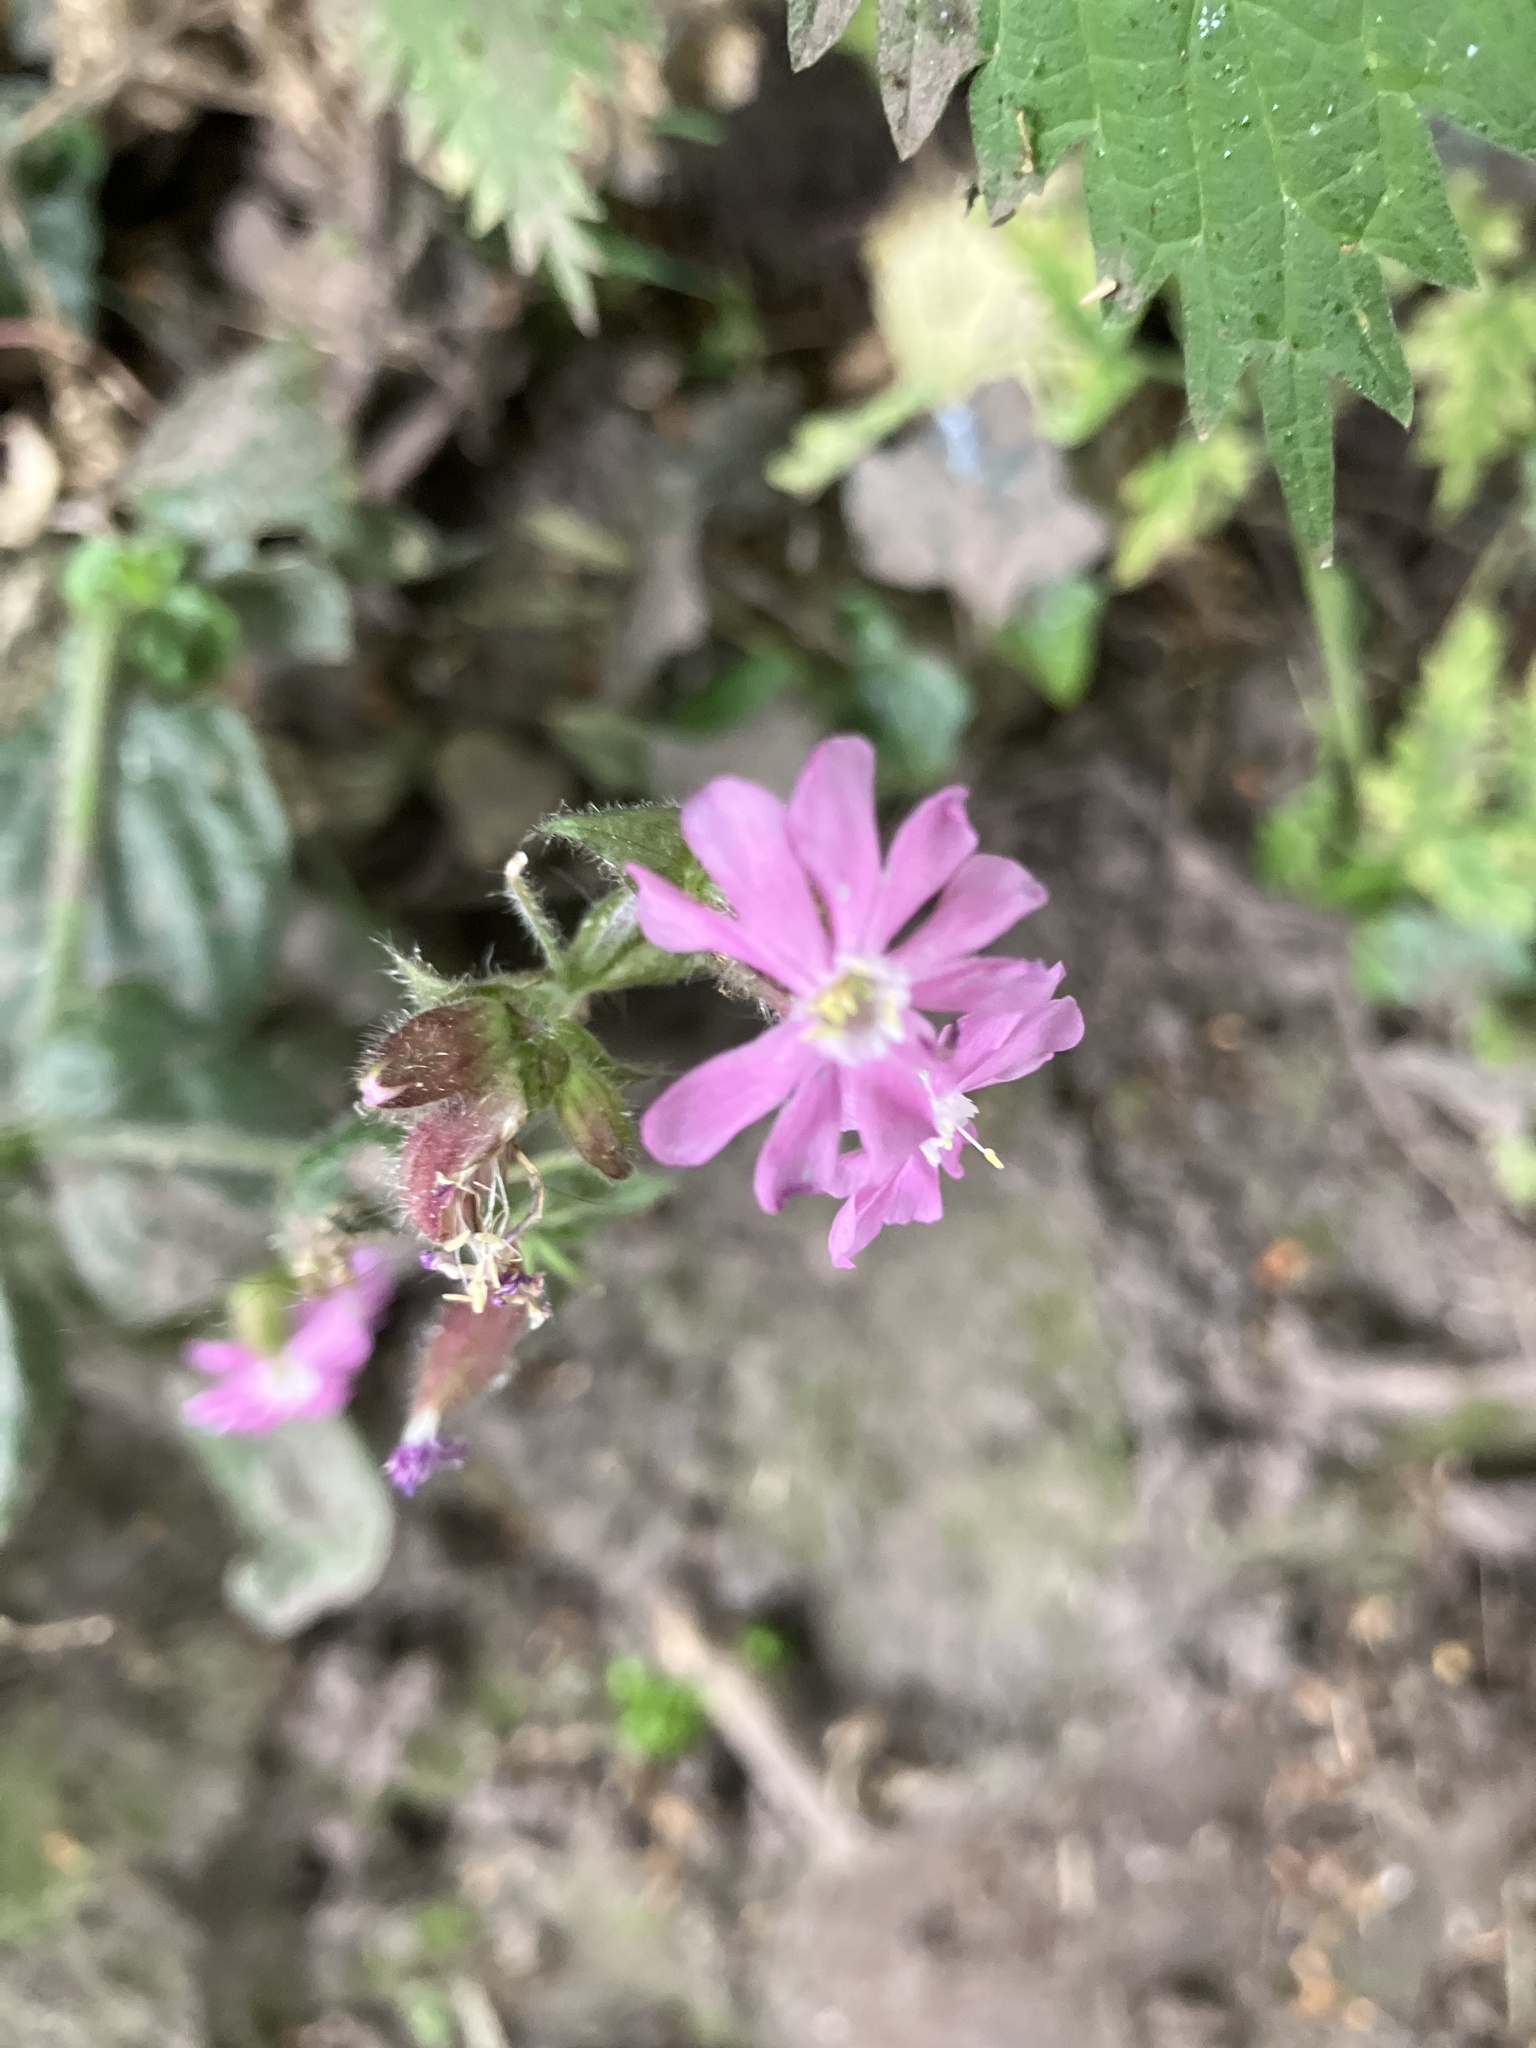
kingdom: Plantae
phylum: Tracheophyta
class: Magnoliopsida
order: Caryophyllales
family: Caryophyllaceae
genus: Silene
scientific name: Silene dioica
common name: Red campion
